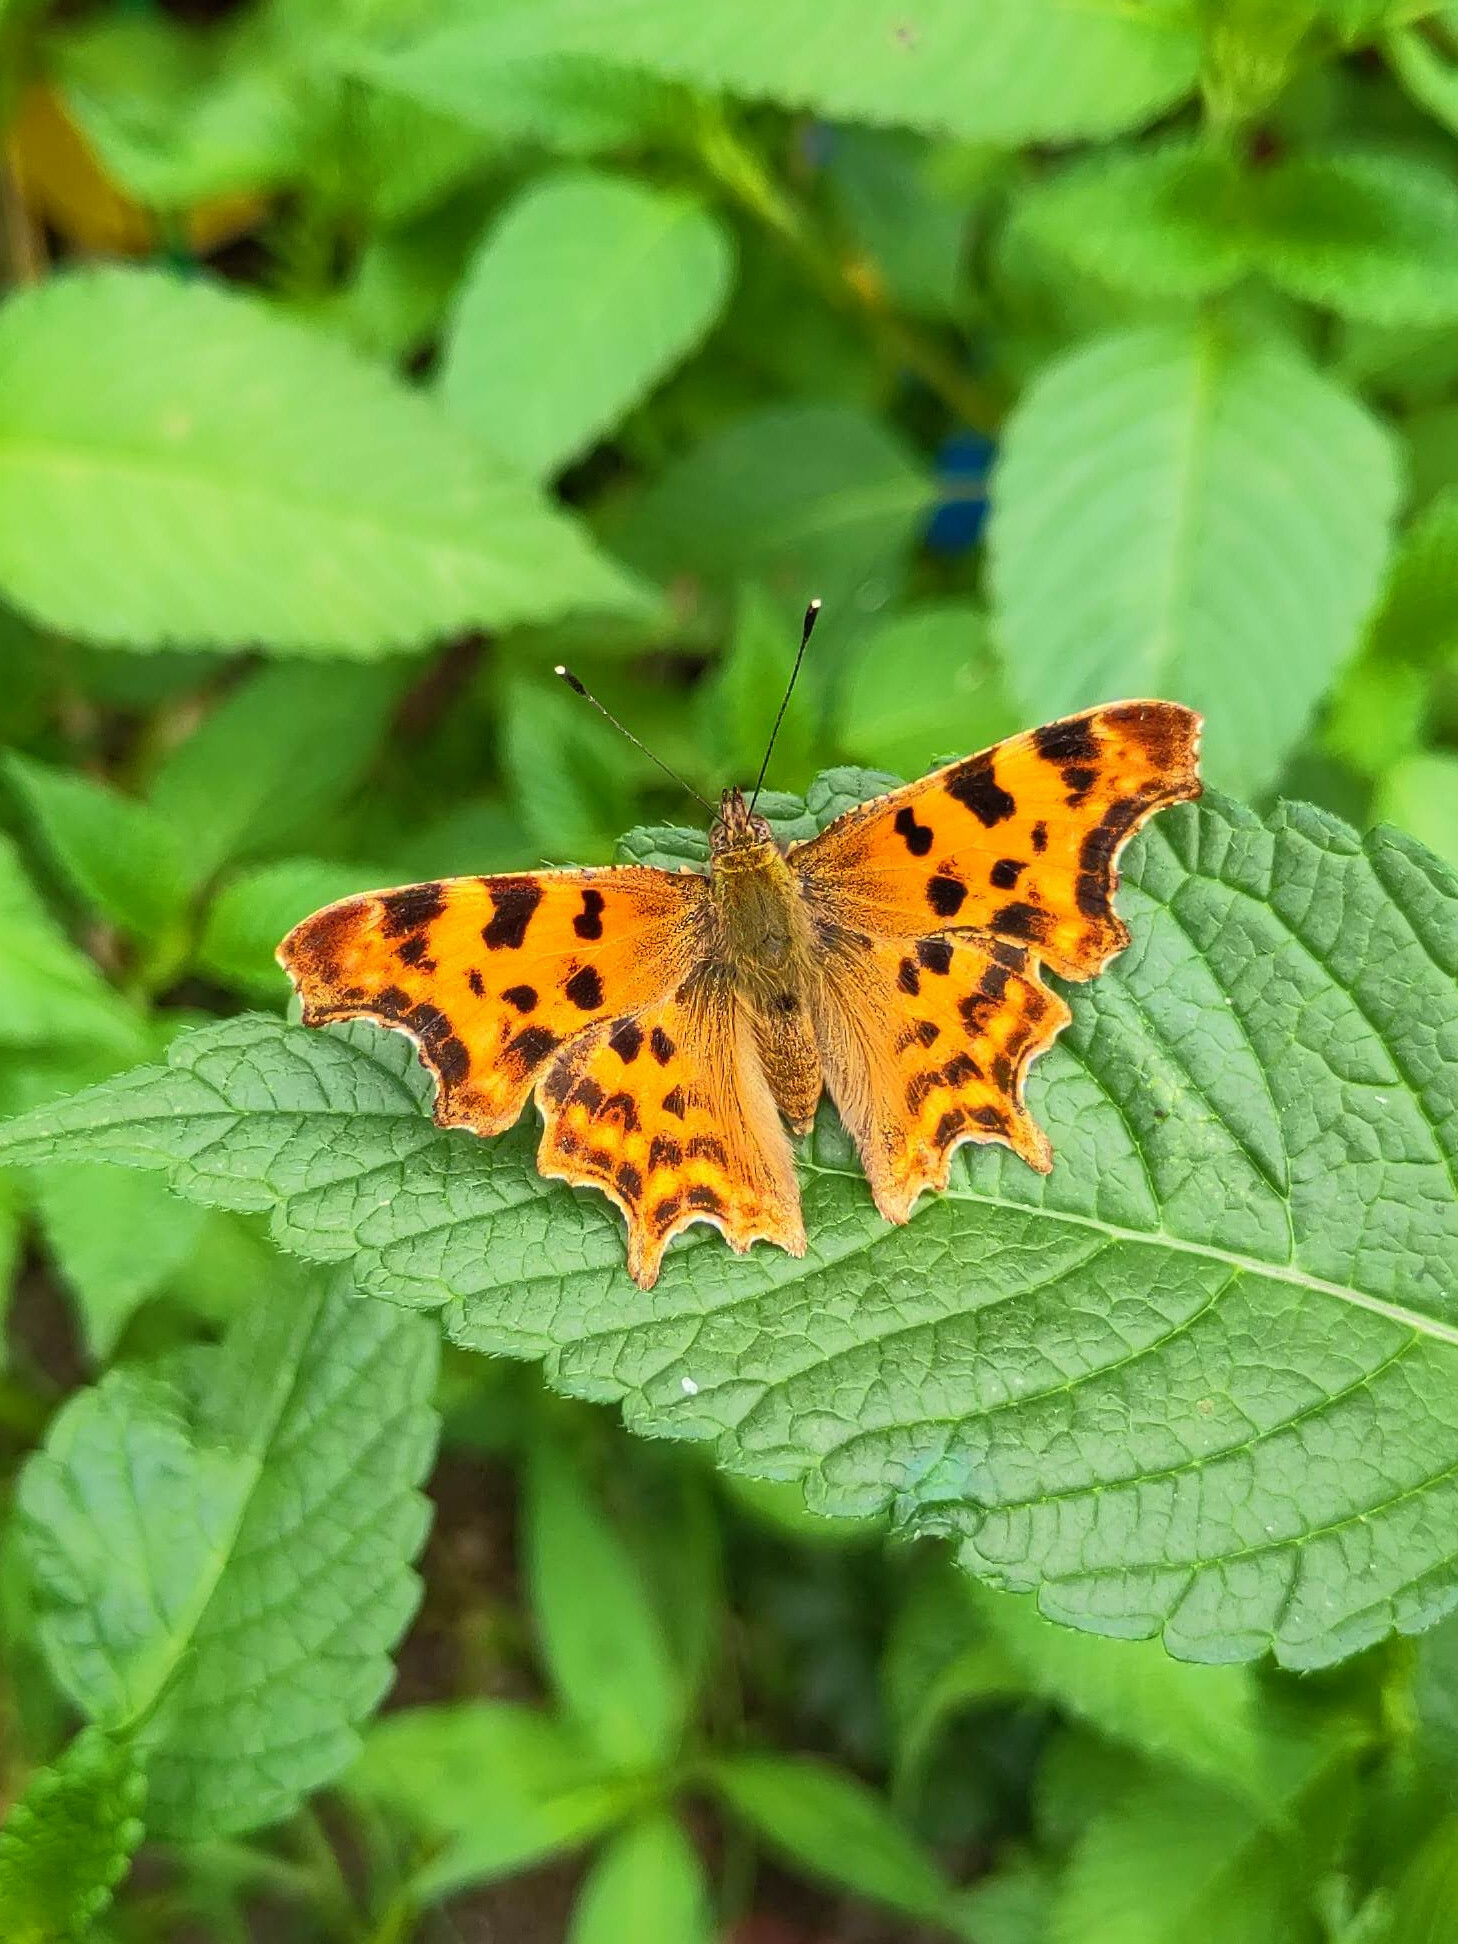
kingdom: Animalia
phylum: Arthropoda
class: Insecta
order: Lepidoptera
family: Nymphalidae
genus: Polygonia
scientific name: Polygonia c-album
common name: Comma
